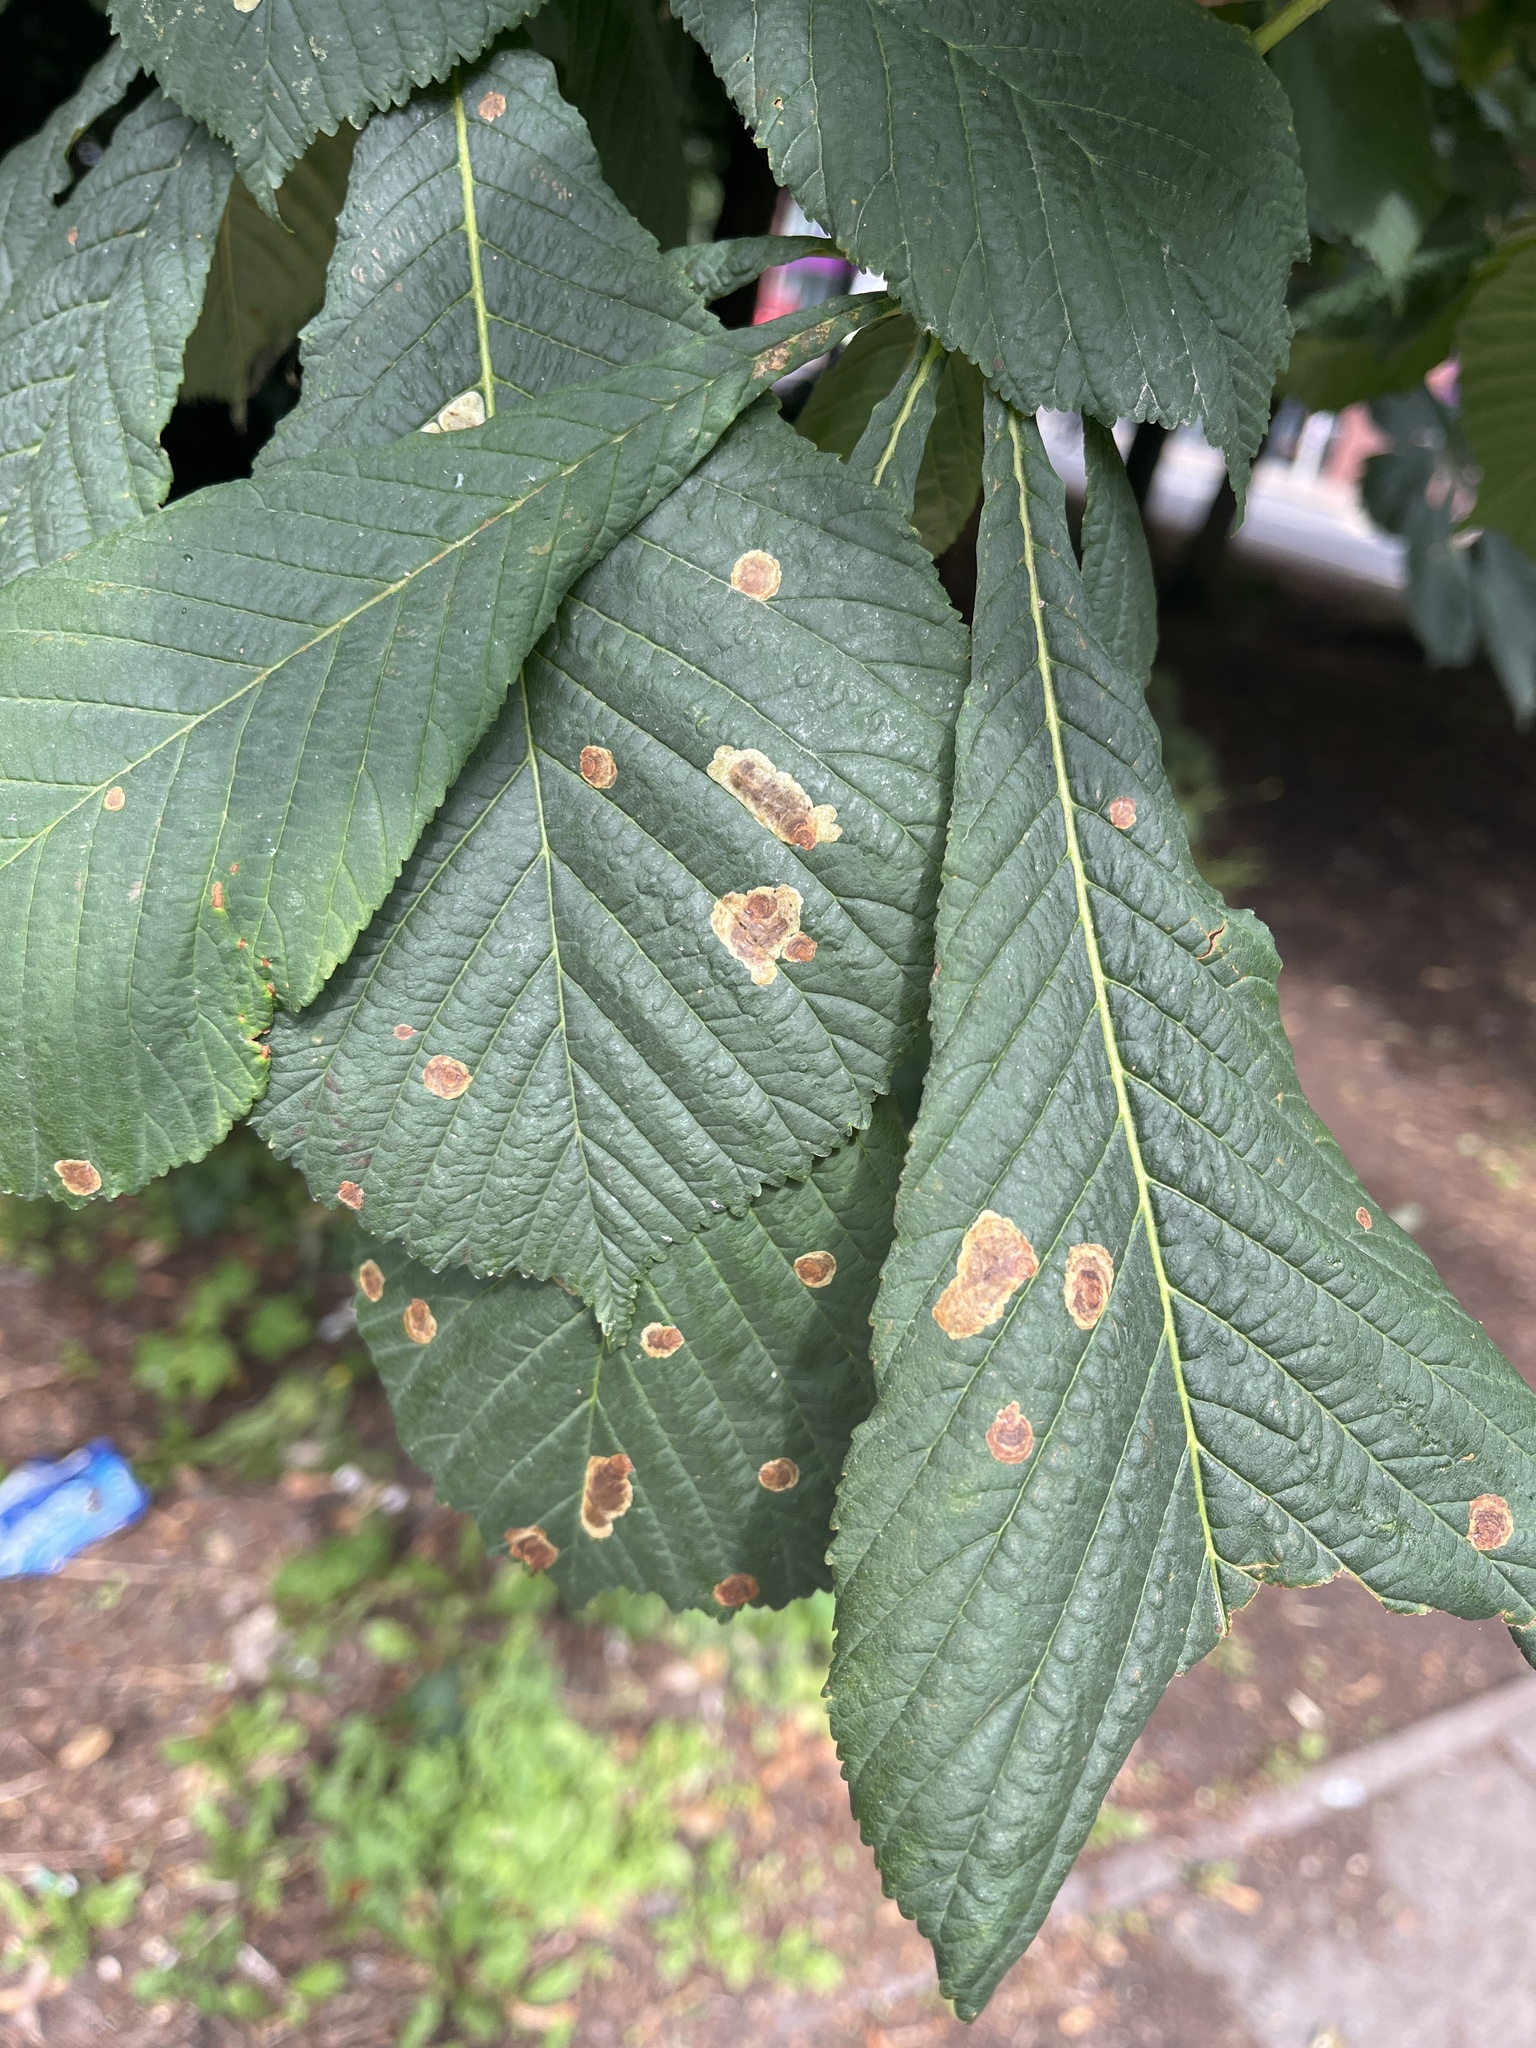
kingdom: Animalia
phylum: Arthropoda
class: Insecta
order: Lepidoptera
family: Gracillariidae
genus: Cameraria
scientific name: Cameraria ohridella
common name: Horse-chestnut leaf-miner
